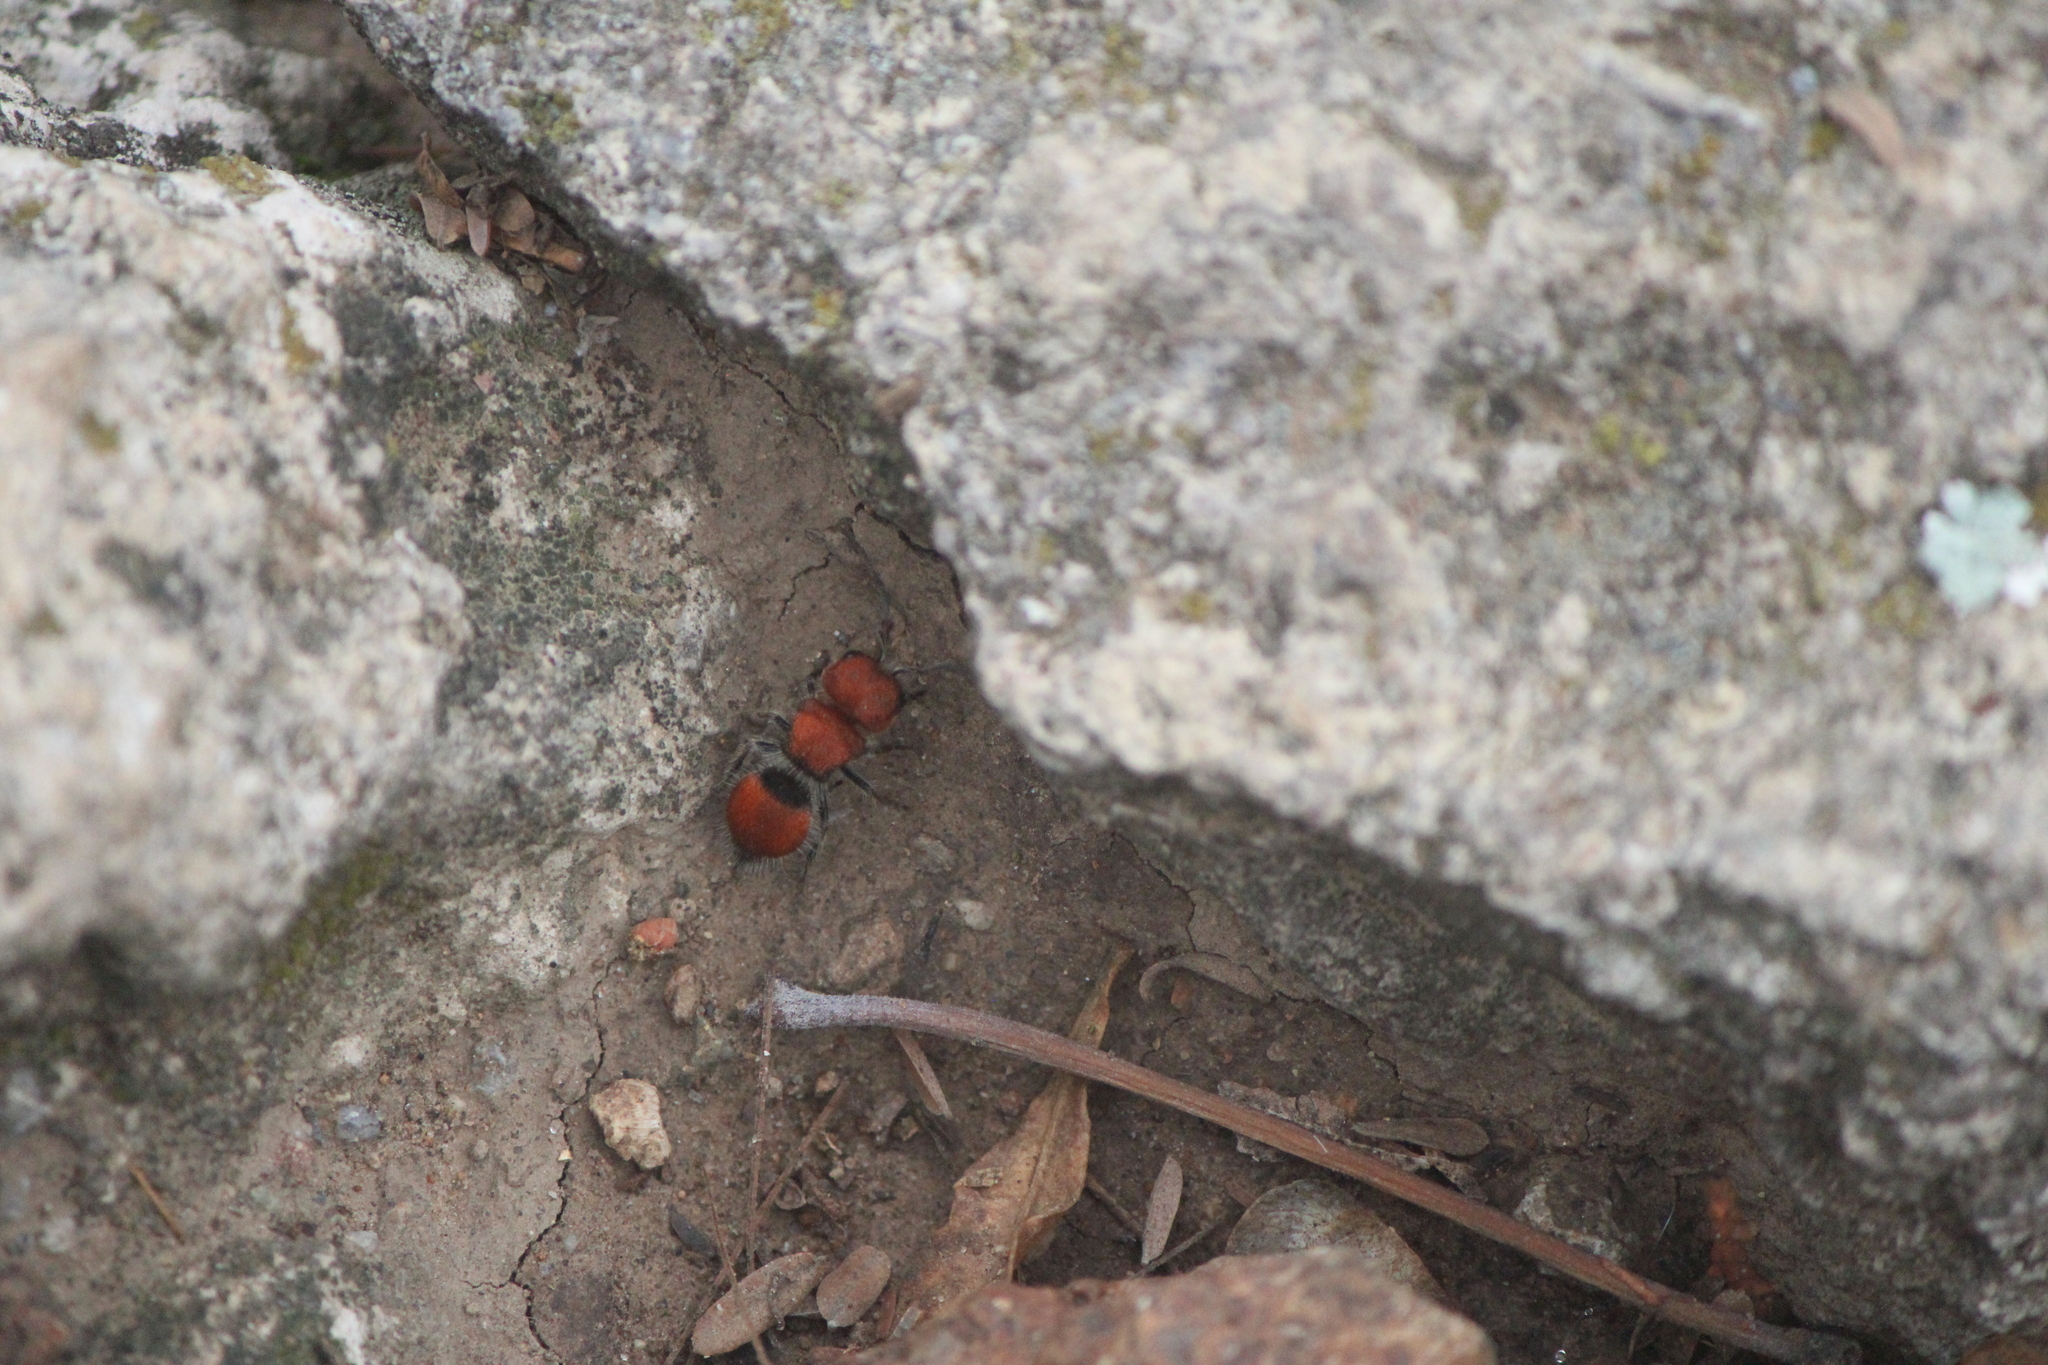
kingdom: Animalia
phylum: Arthropoda
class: Insecta
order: Hymenoptera
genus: Invreiella
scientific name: Invreiella satrapa
